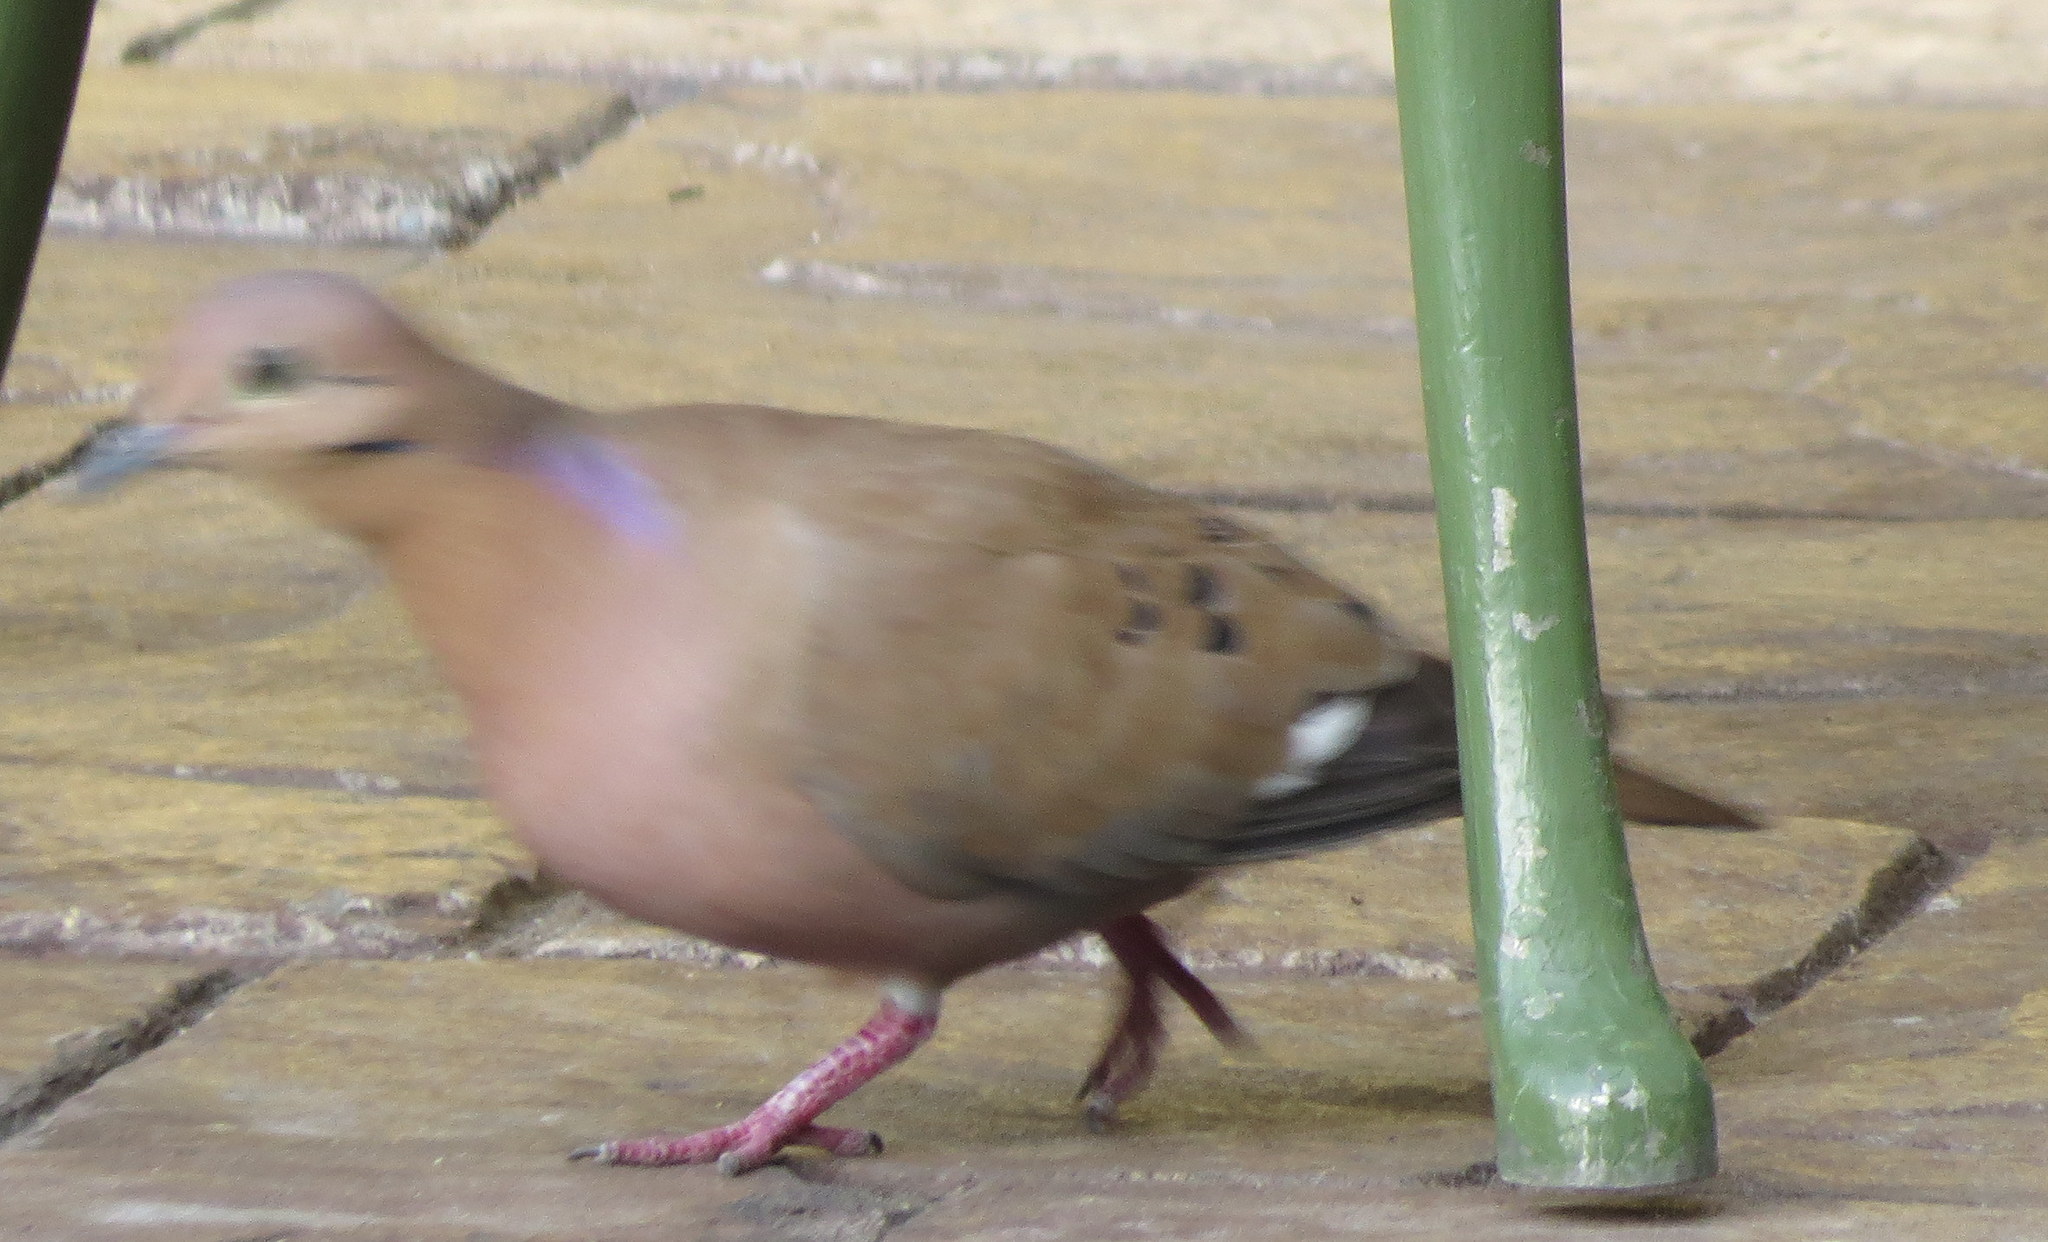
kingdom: Animalia
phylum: Chordata
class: Aves
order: Columbiformes
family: Columbidae
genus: Zenaida
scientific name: Zenaida aurita
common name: Zenaida dove
